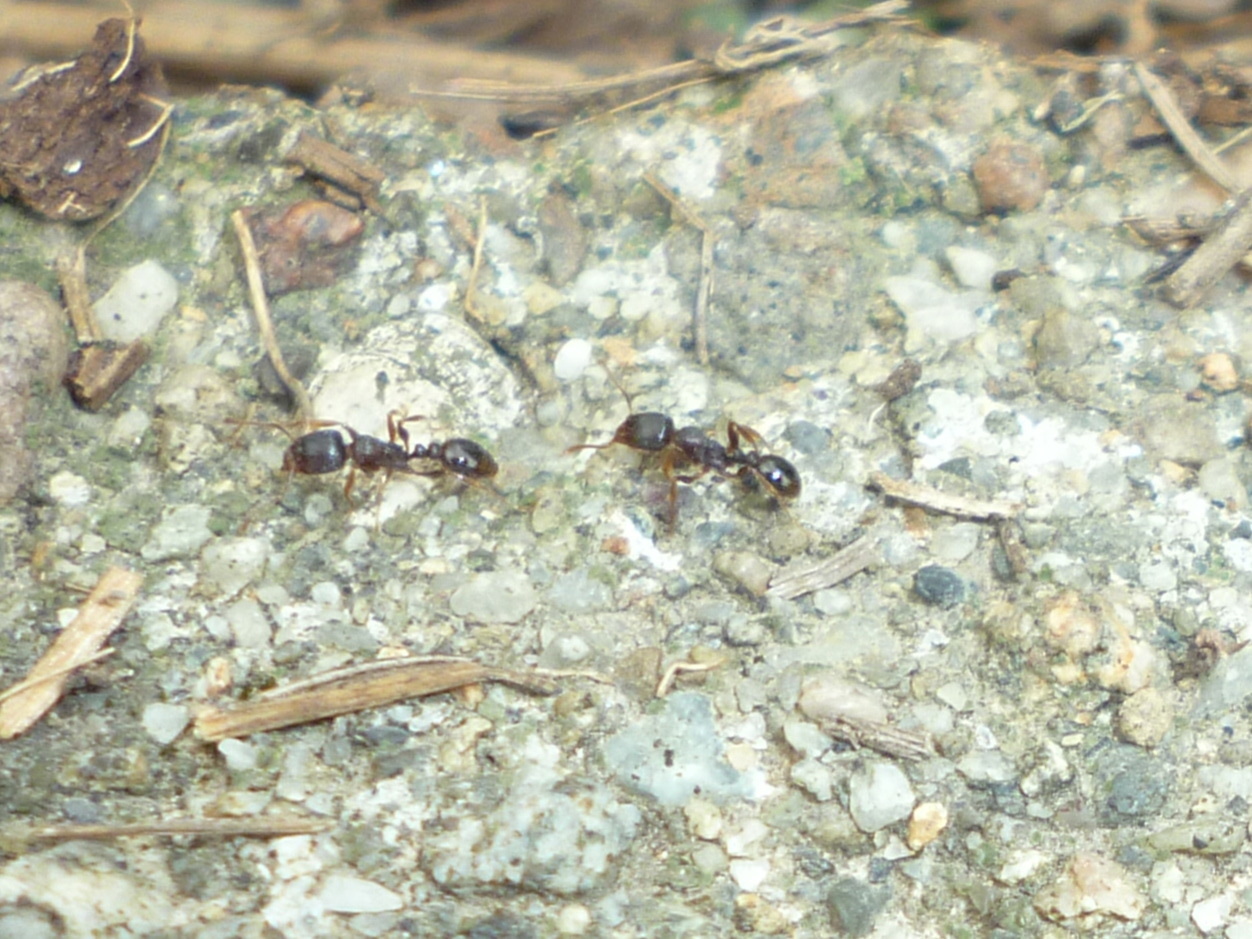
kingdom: Animalia
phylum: Arthropoda
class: Insecta
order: Hymenoptera
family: Formicidae
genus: Tetramorium
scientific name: Tetramorium immigrans
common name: Pavement ant
